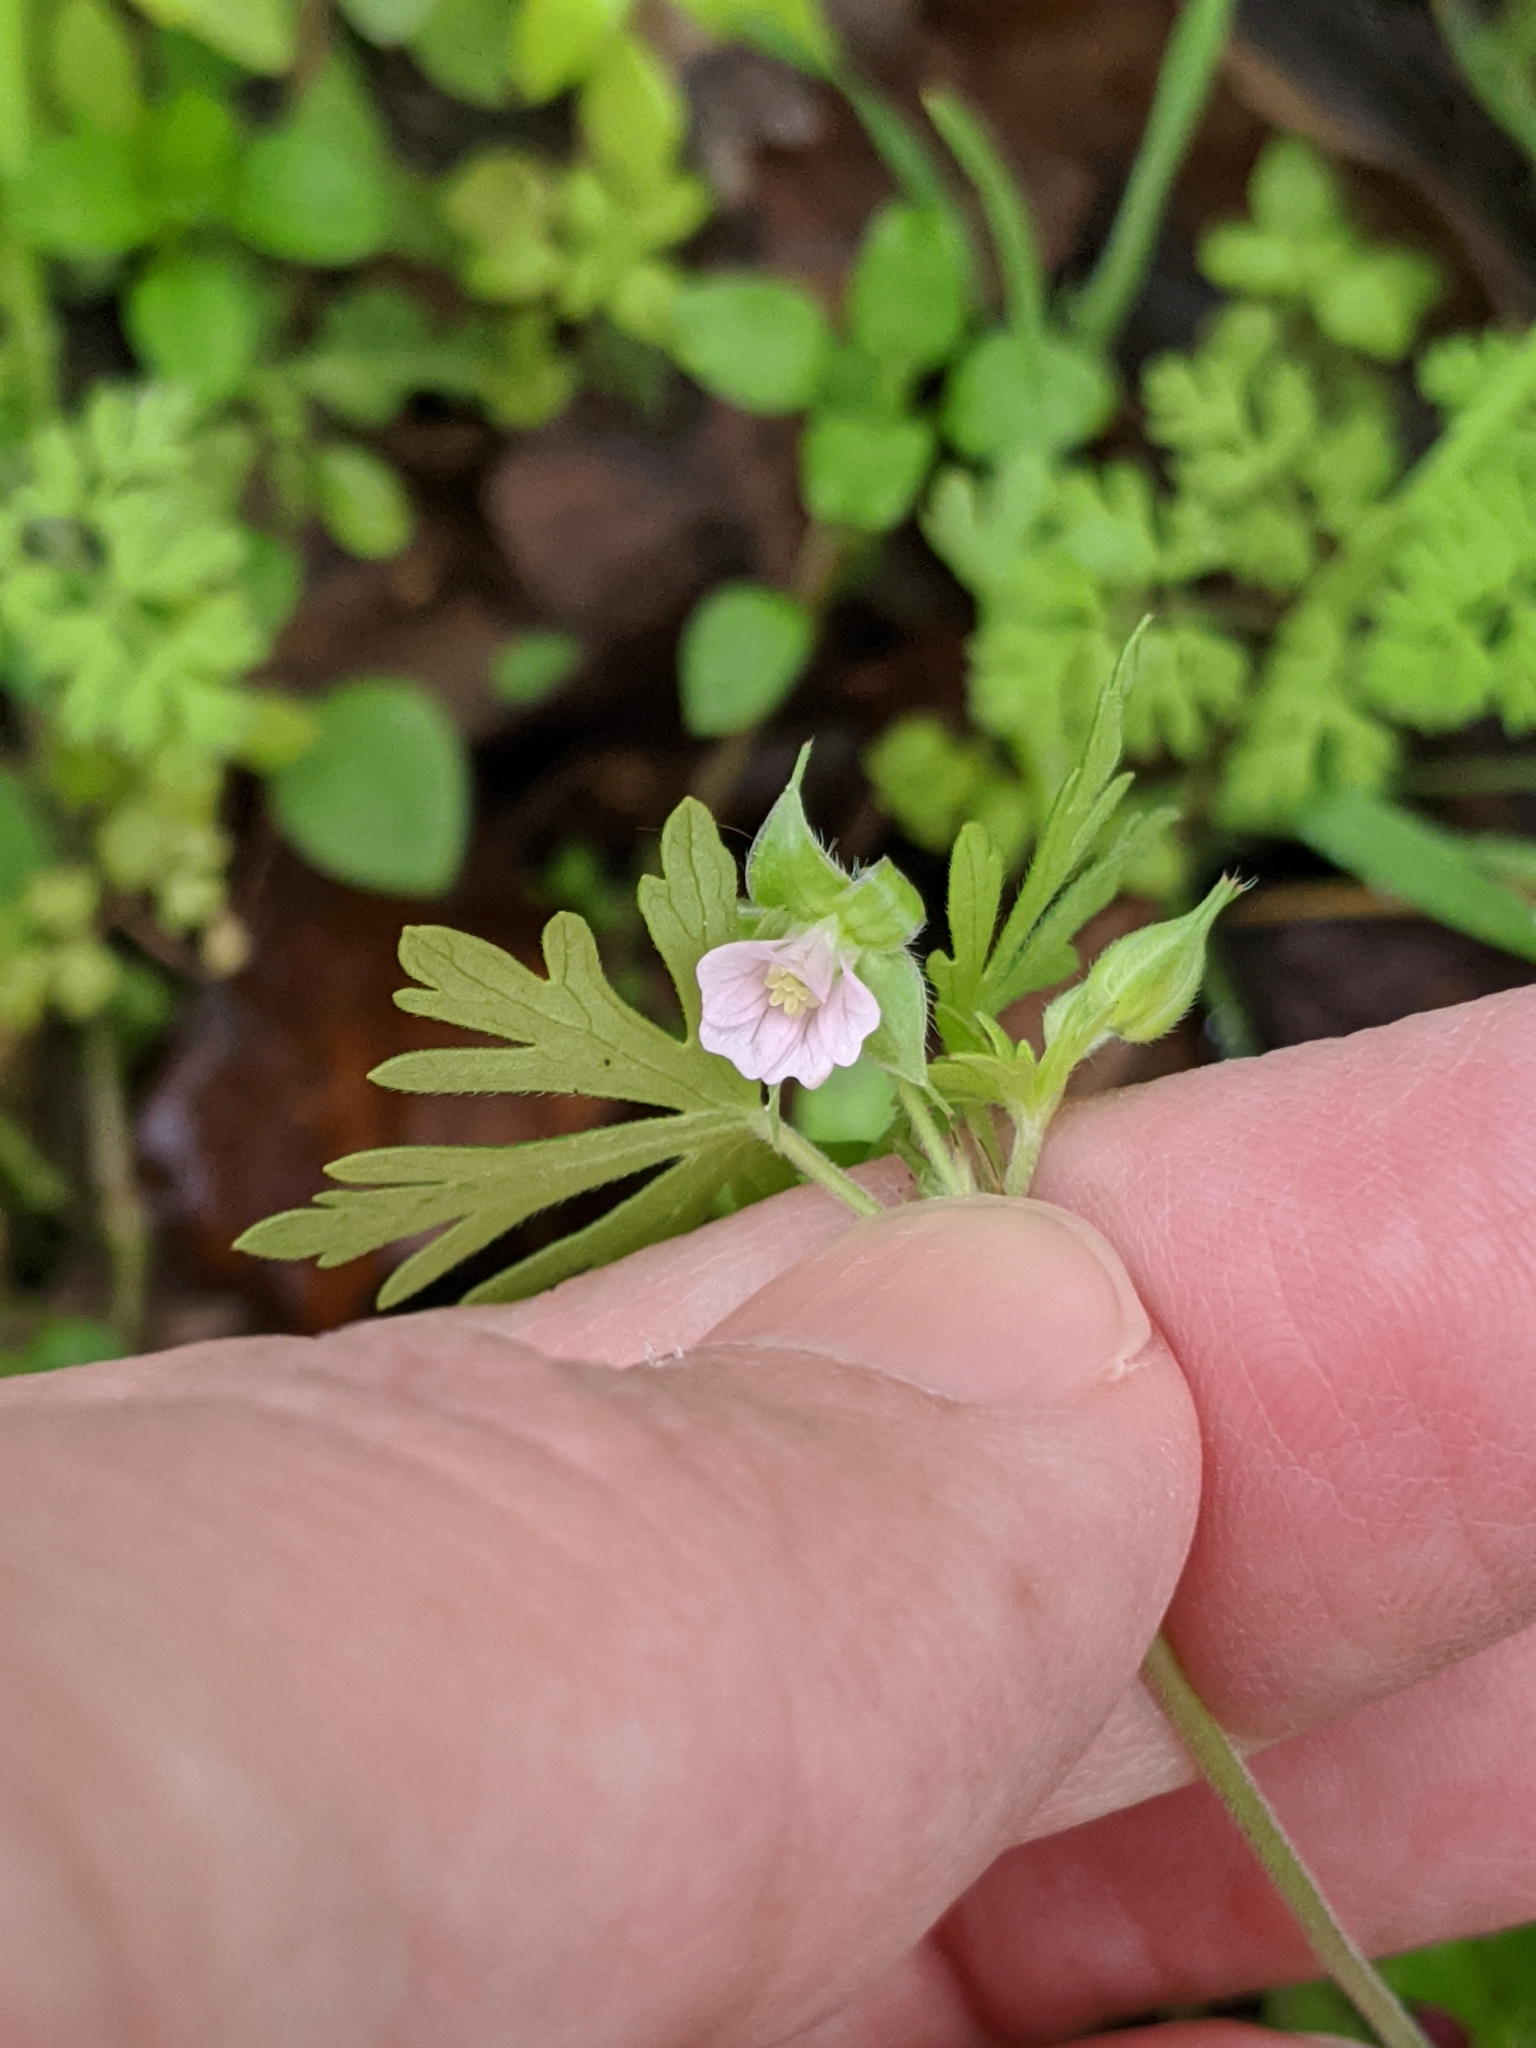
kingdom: Plantae
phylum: Tracheophyta
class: Magnoliopsida
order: Geraniales
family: Geraniaceae
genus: Geranium
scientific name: Geranium carolinianum
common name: Carolina crane's-bill
